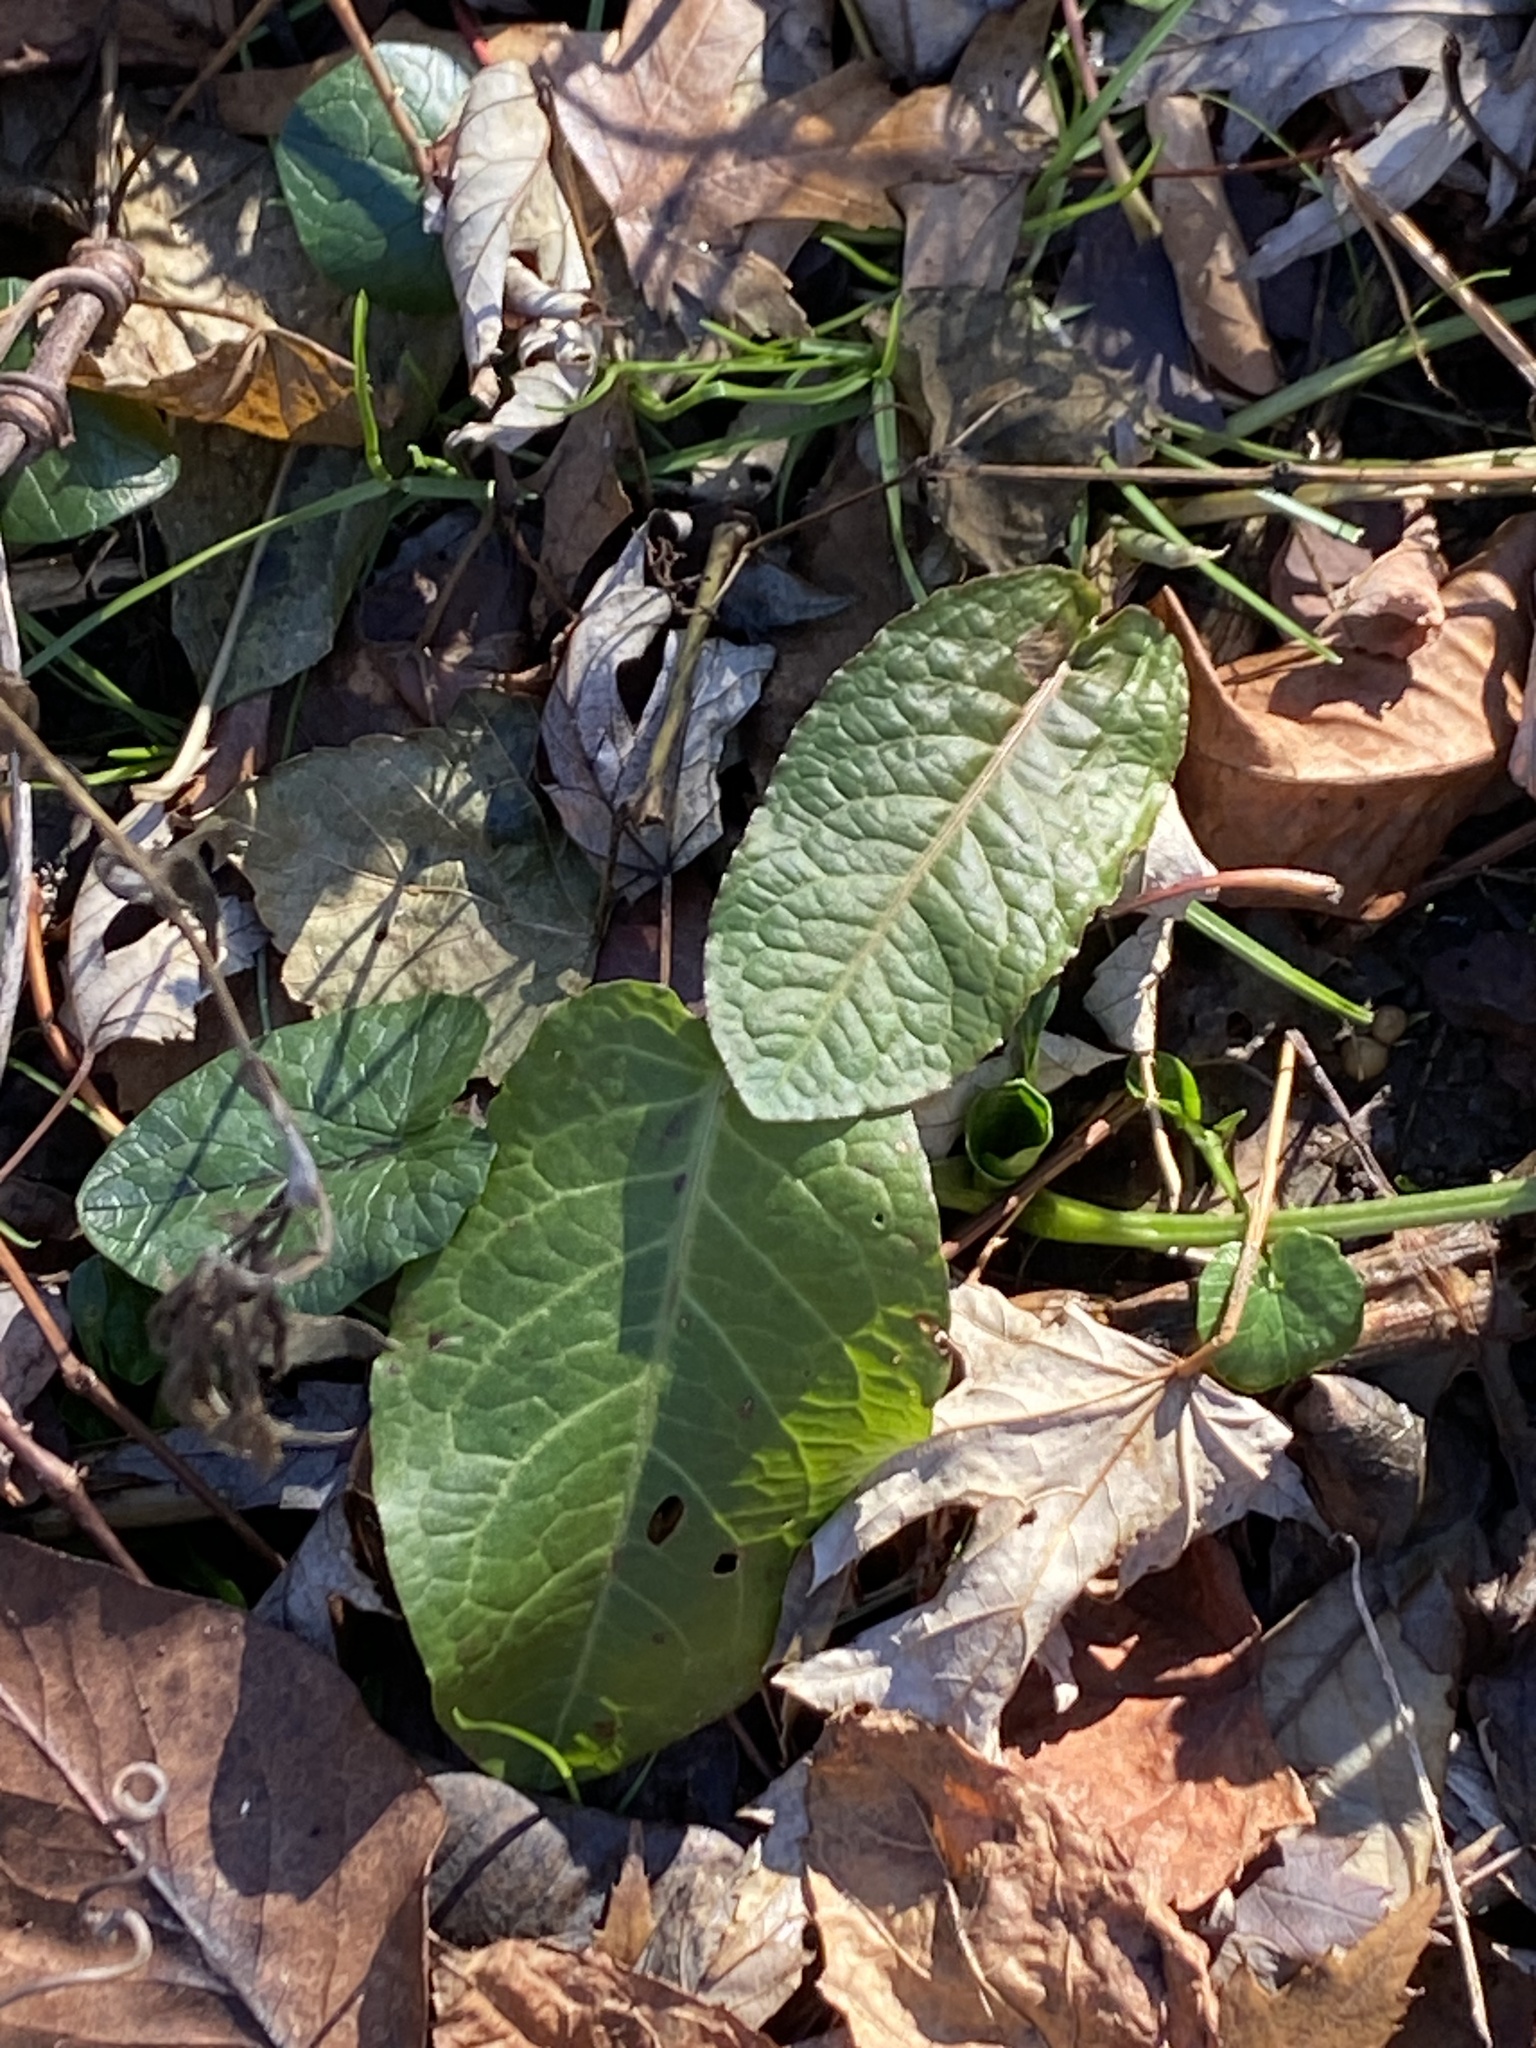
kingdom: Plantae
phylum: Tracheophyta
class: Magnoliopsida
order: Caryophyllales
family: Polygonaceae
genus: Rumex
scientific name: Rumex obtusifolius
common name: Bitter dock
